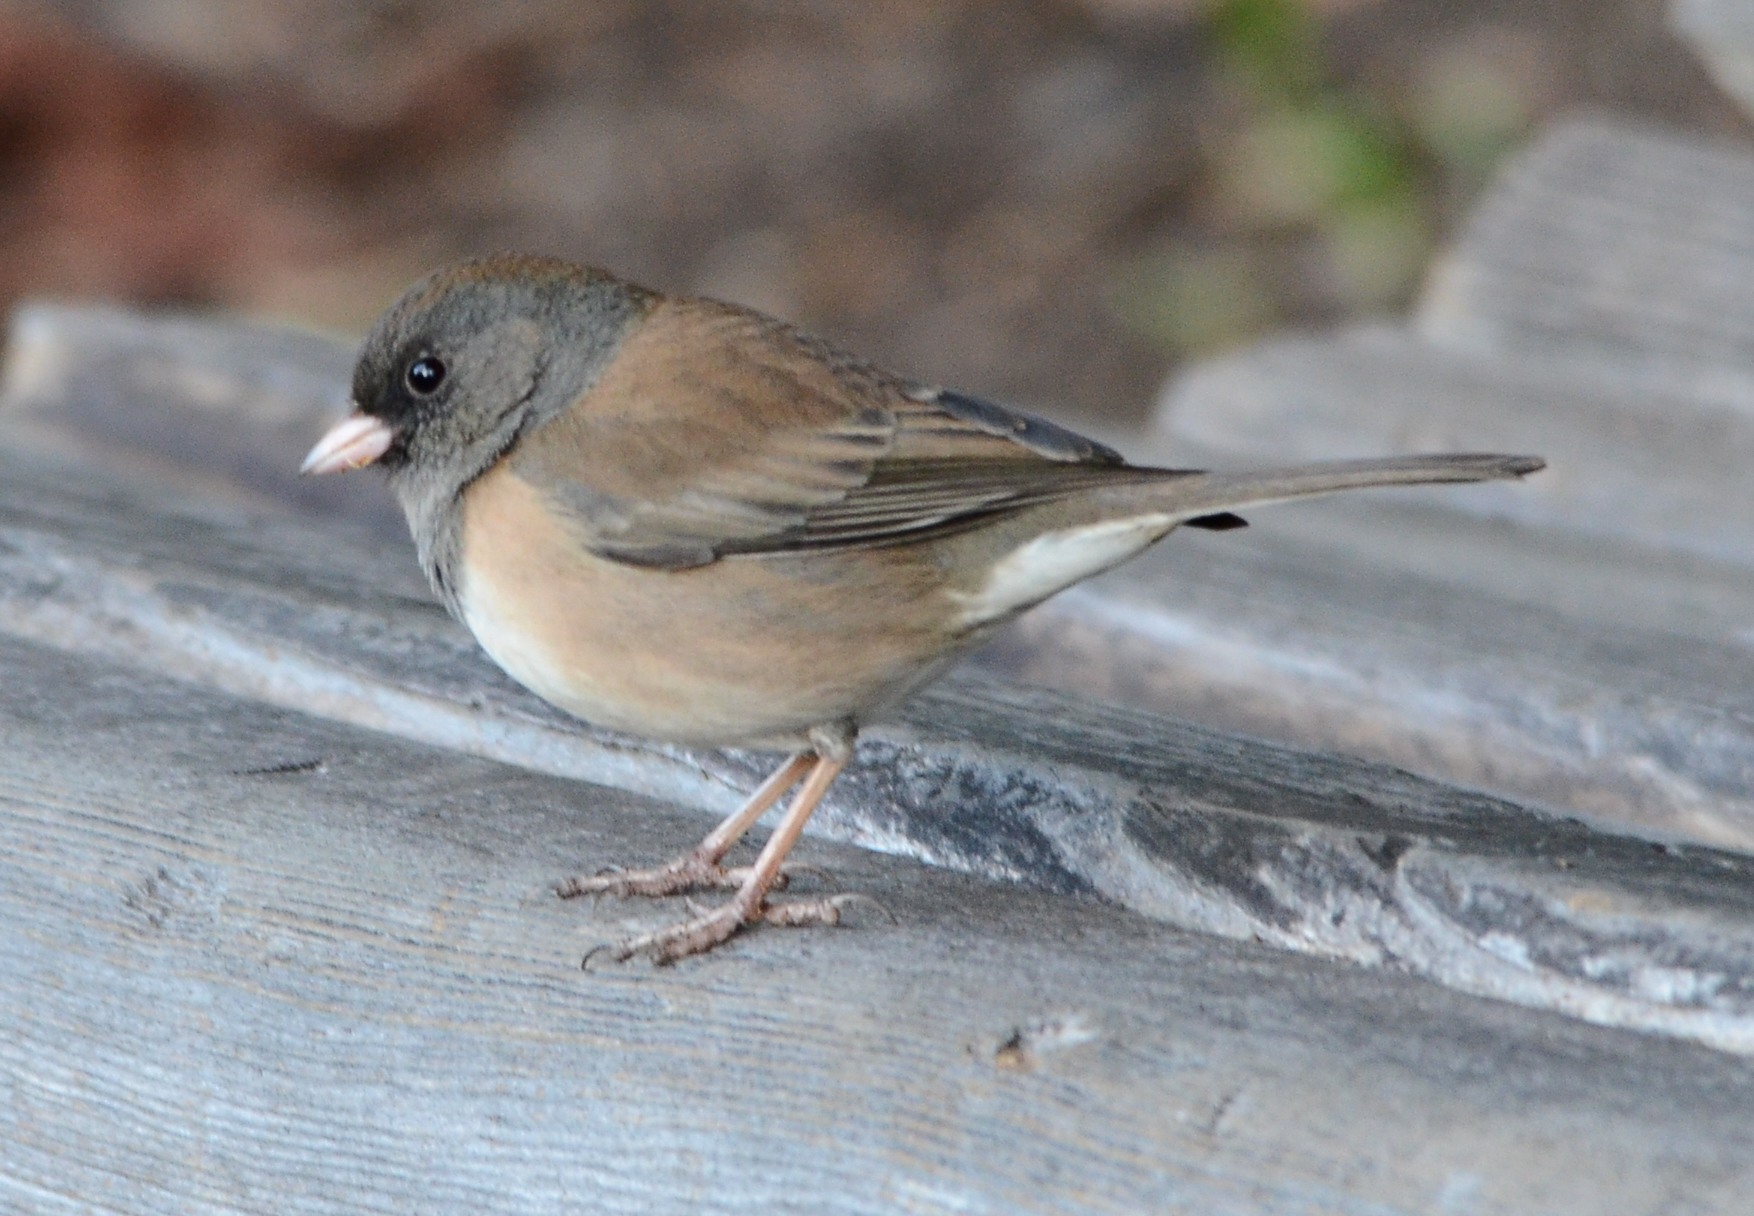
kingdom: Animalia
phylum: Chordata
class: Aves
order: Passeriformes
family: Passerellidae
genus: Junco
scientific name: Junco hyemalis
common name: Dark-eyed junco
